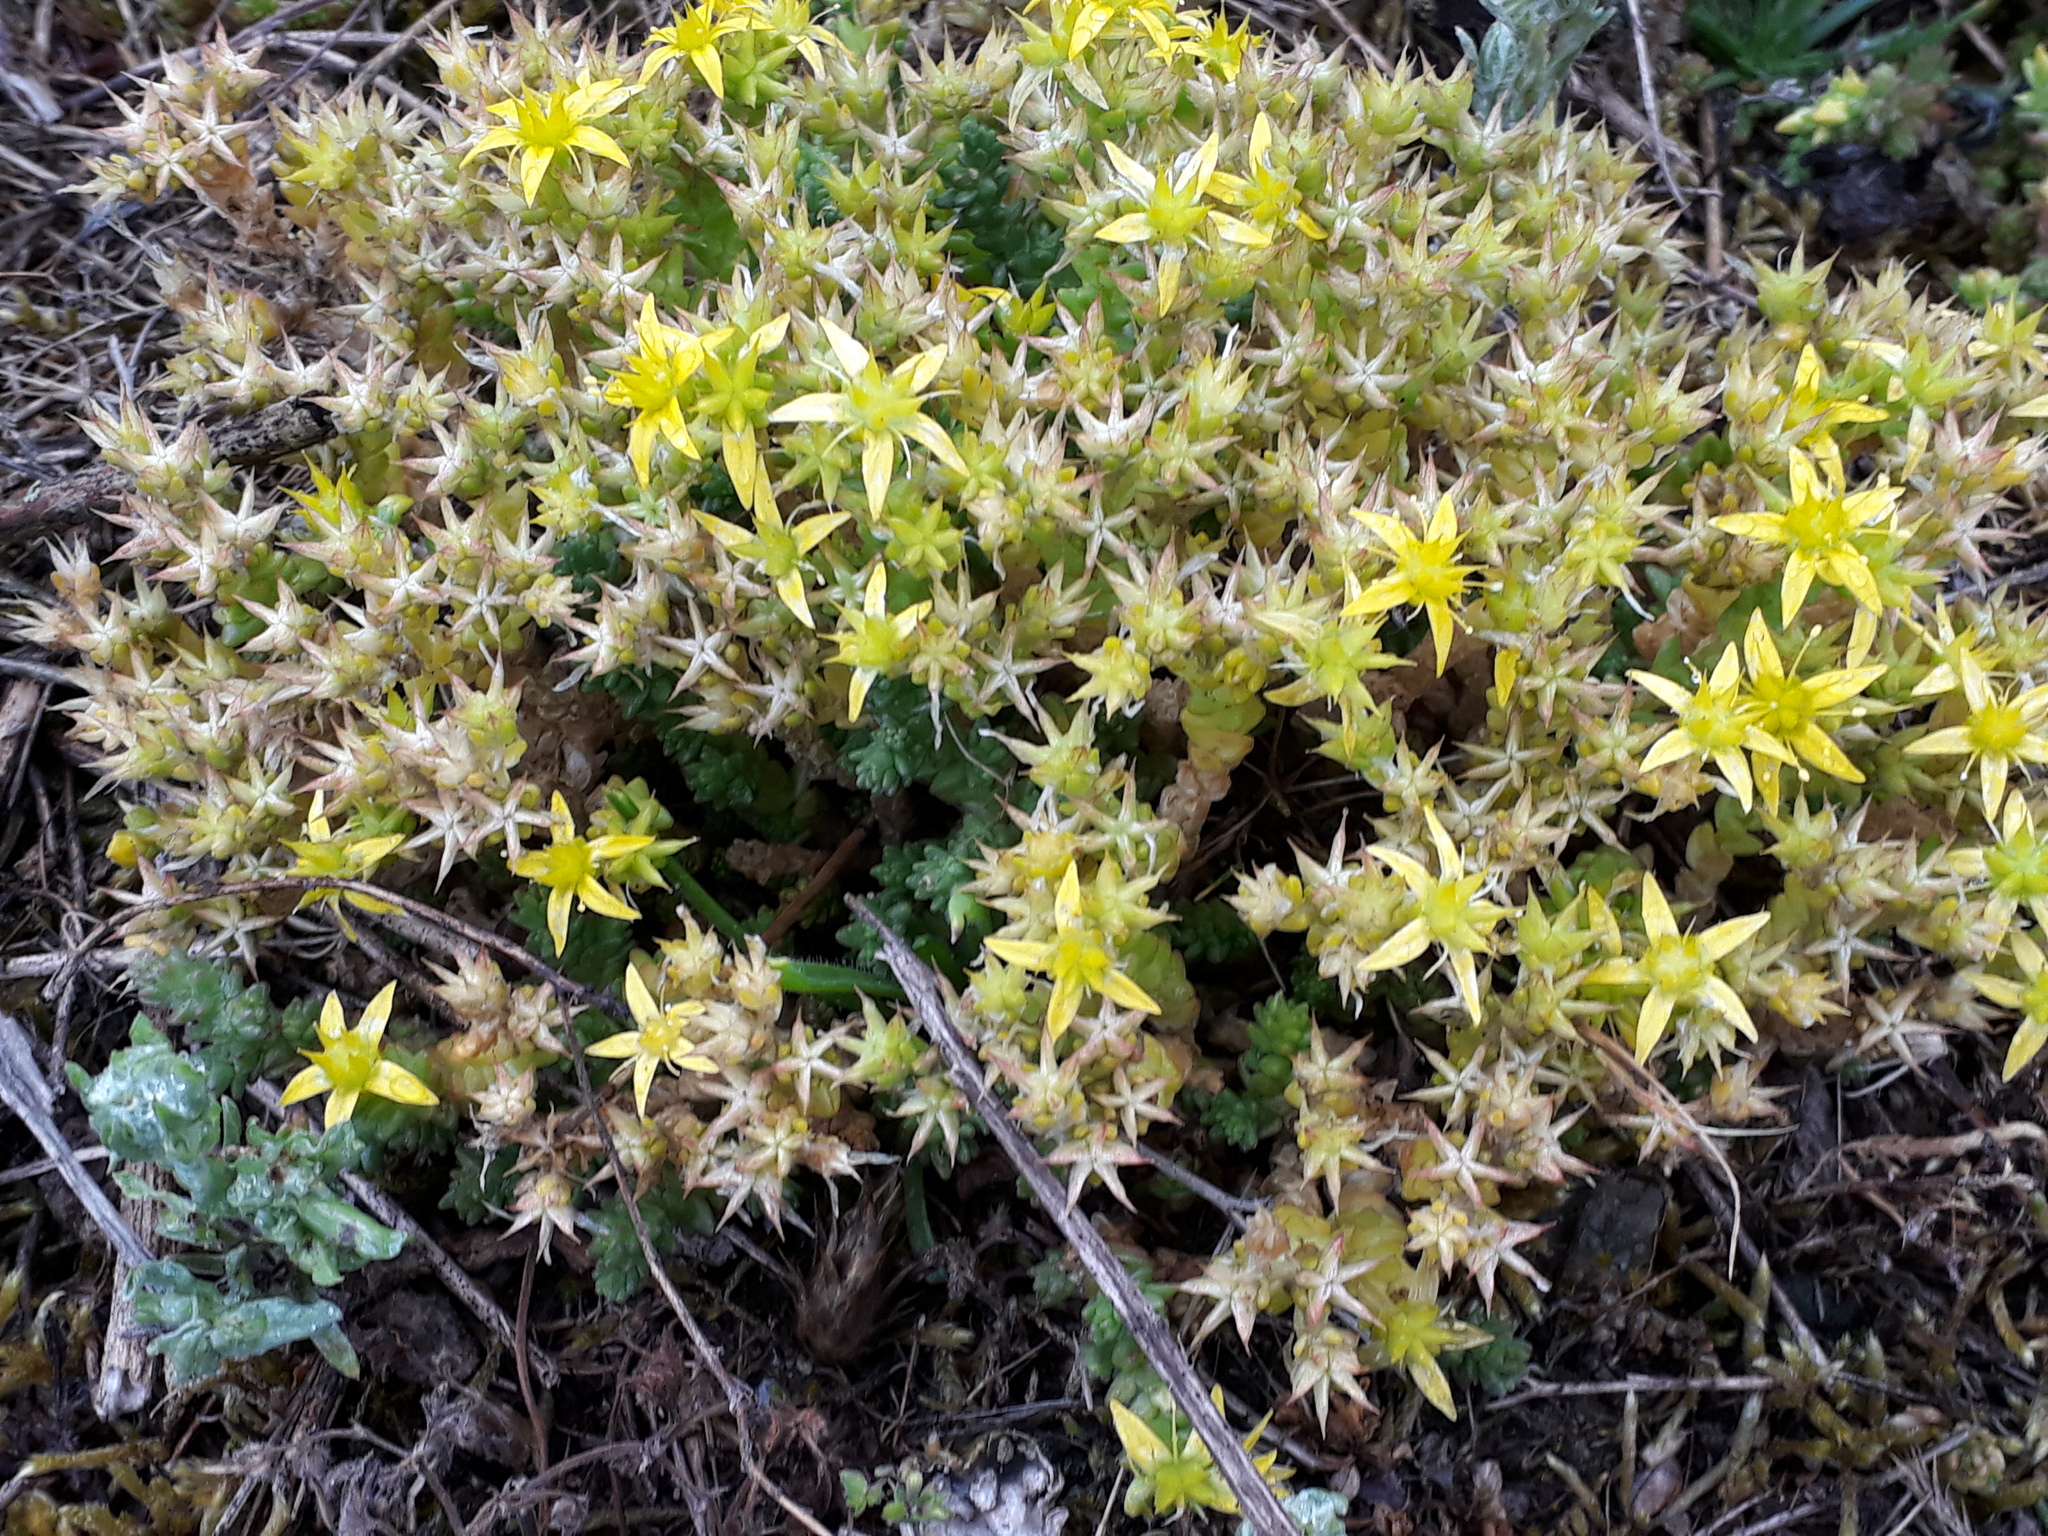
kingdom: Plantae
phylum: Tracheophyta
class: Magnoliopsida
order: Saxifragales
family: Crassulaceae
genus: Sedum
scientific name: Sedum acre
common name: Biting stonecrop
